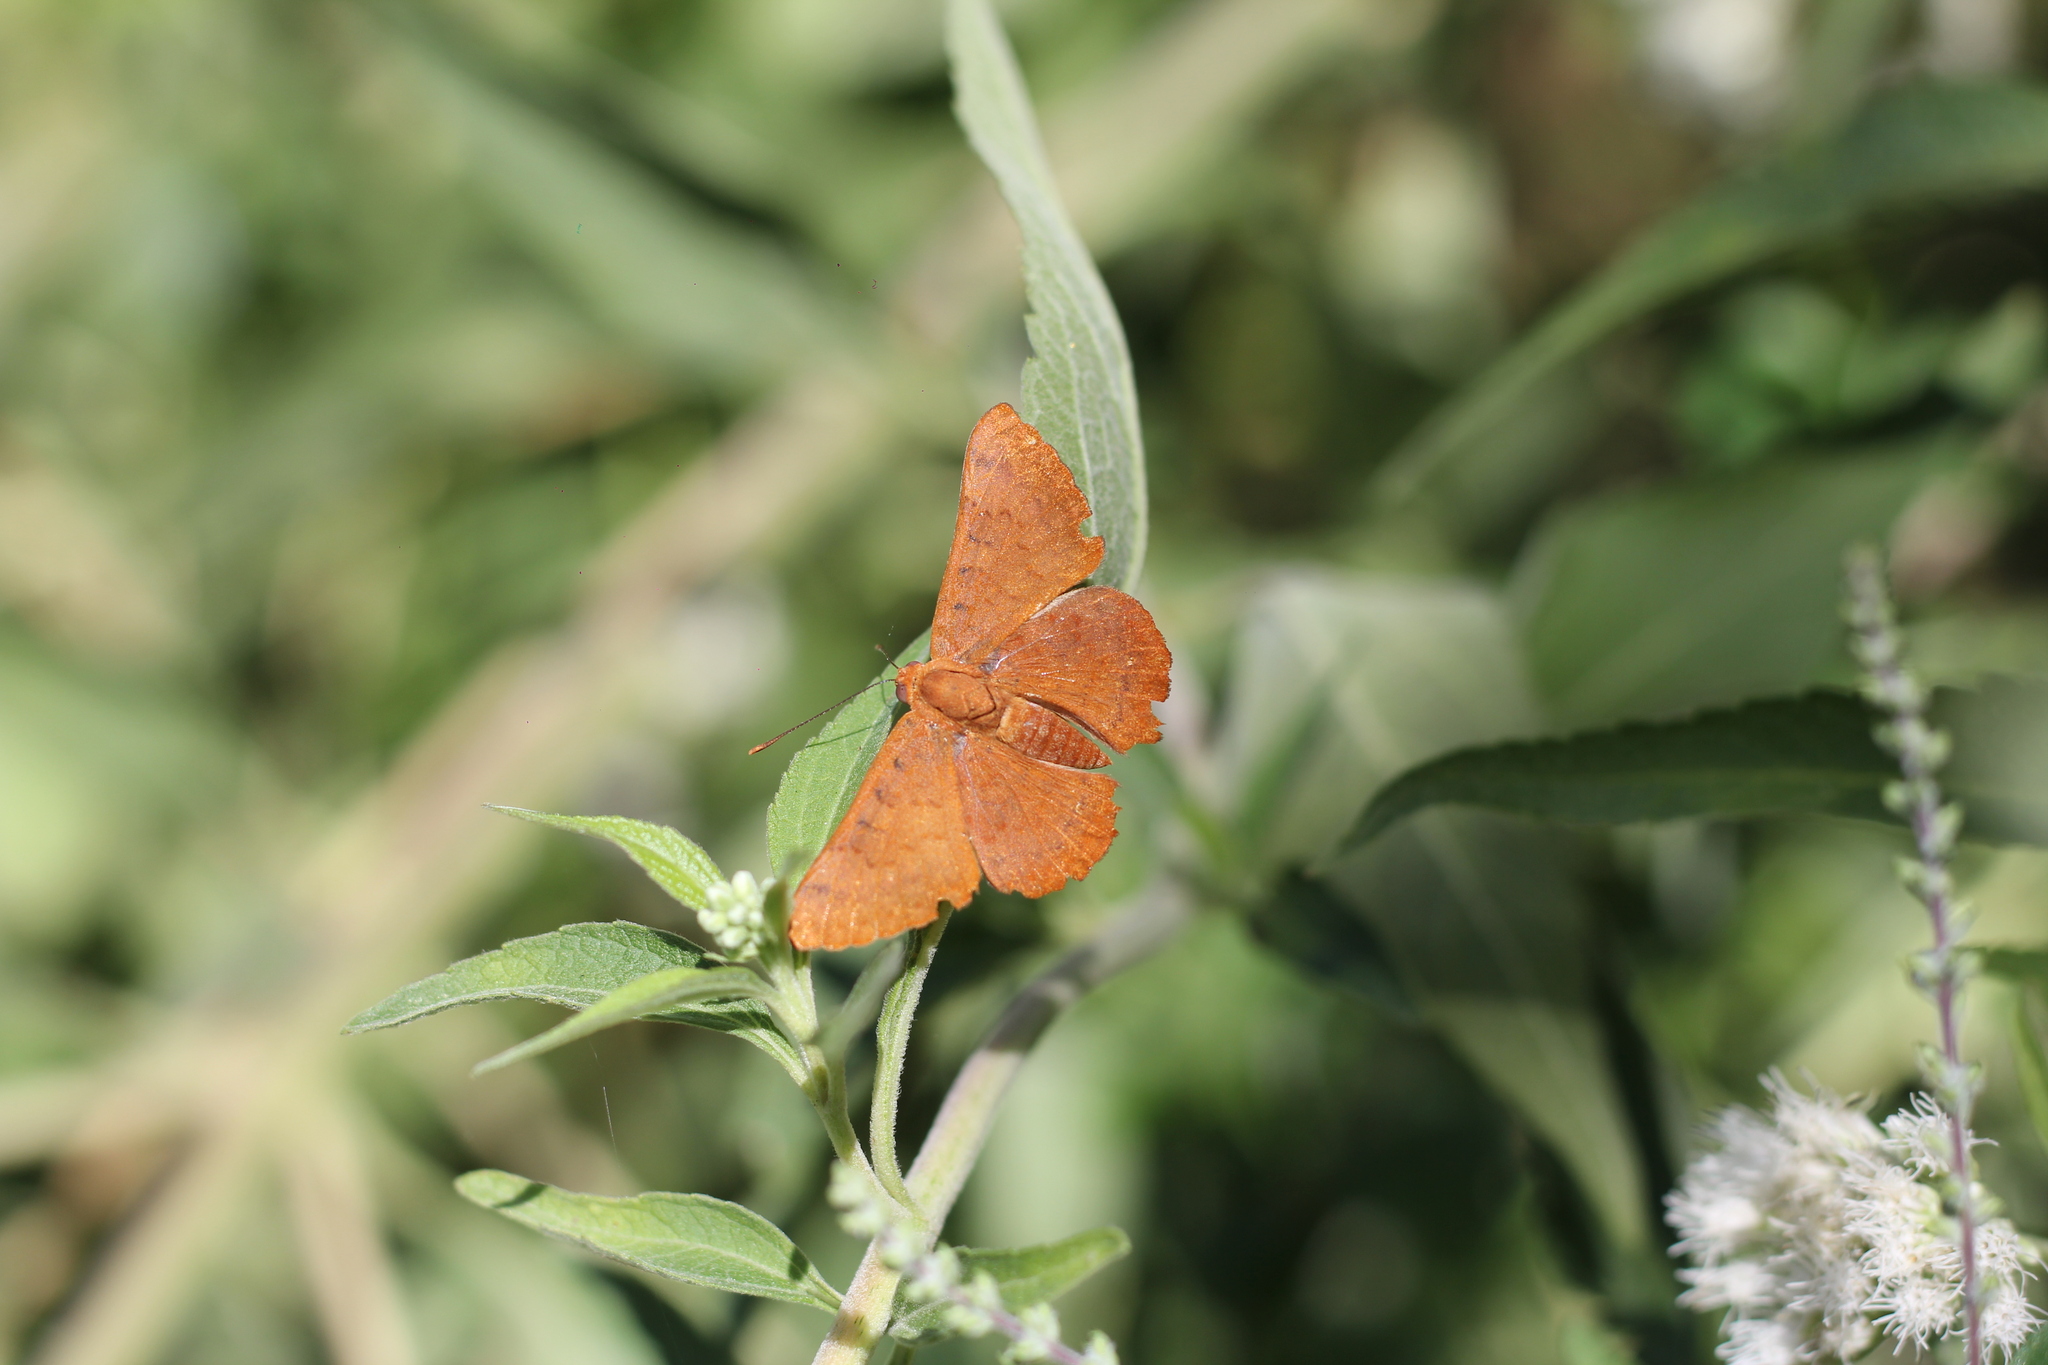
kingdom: Animalia
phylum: Arthropoda
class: Insecta
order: Lepidoptera
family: Lycaenidae
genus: Emesis
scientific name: Emesis russula
